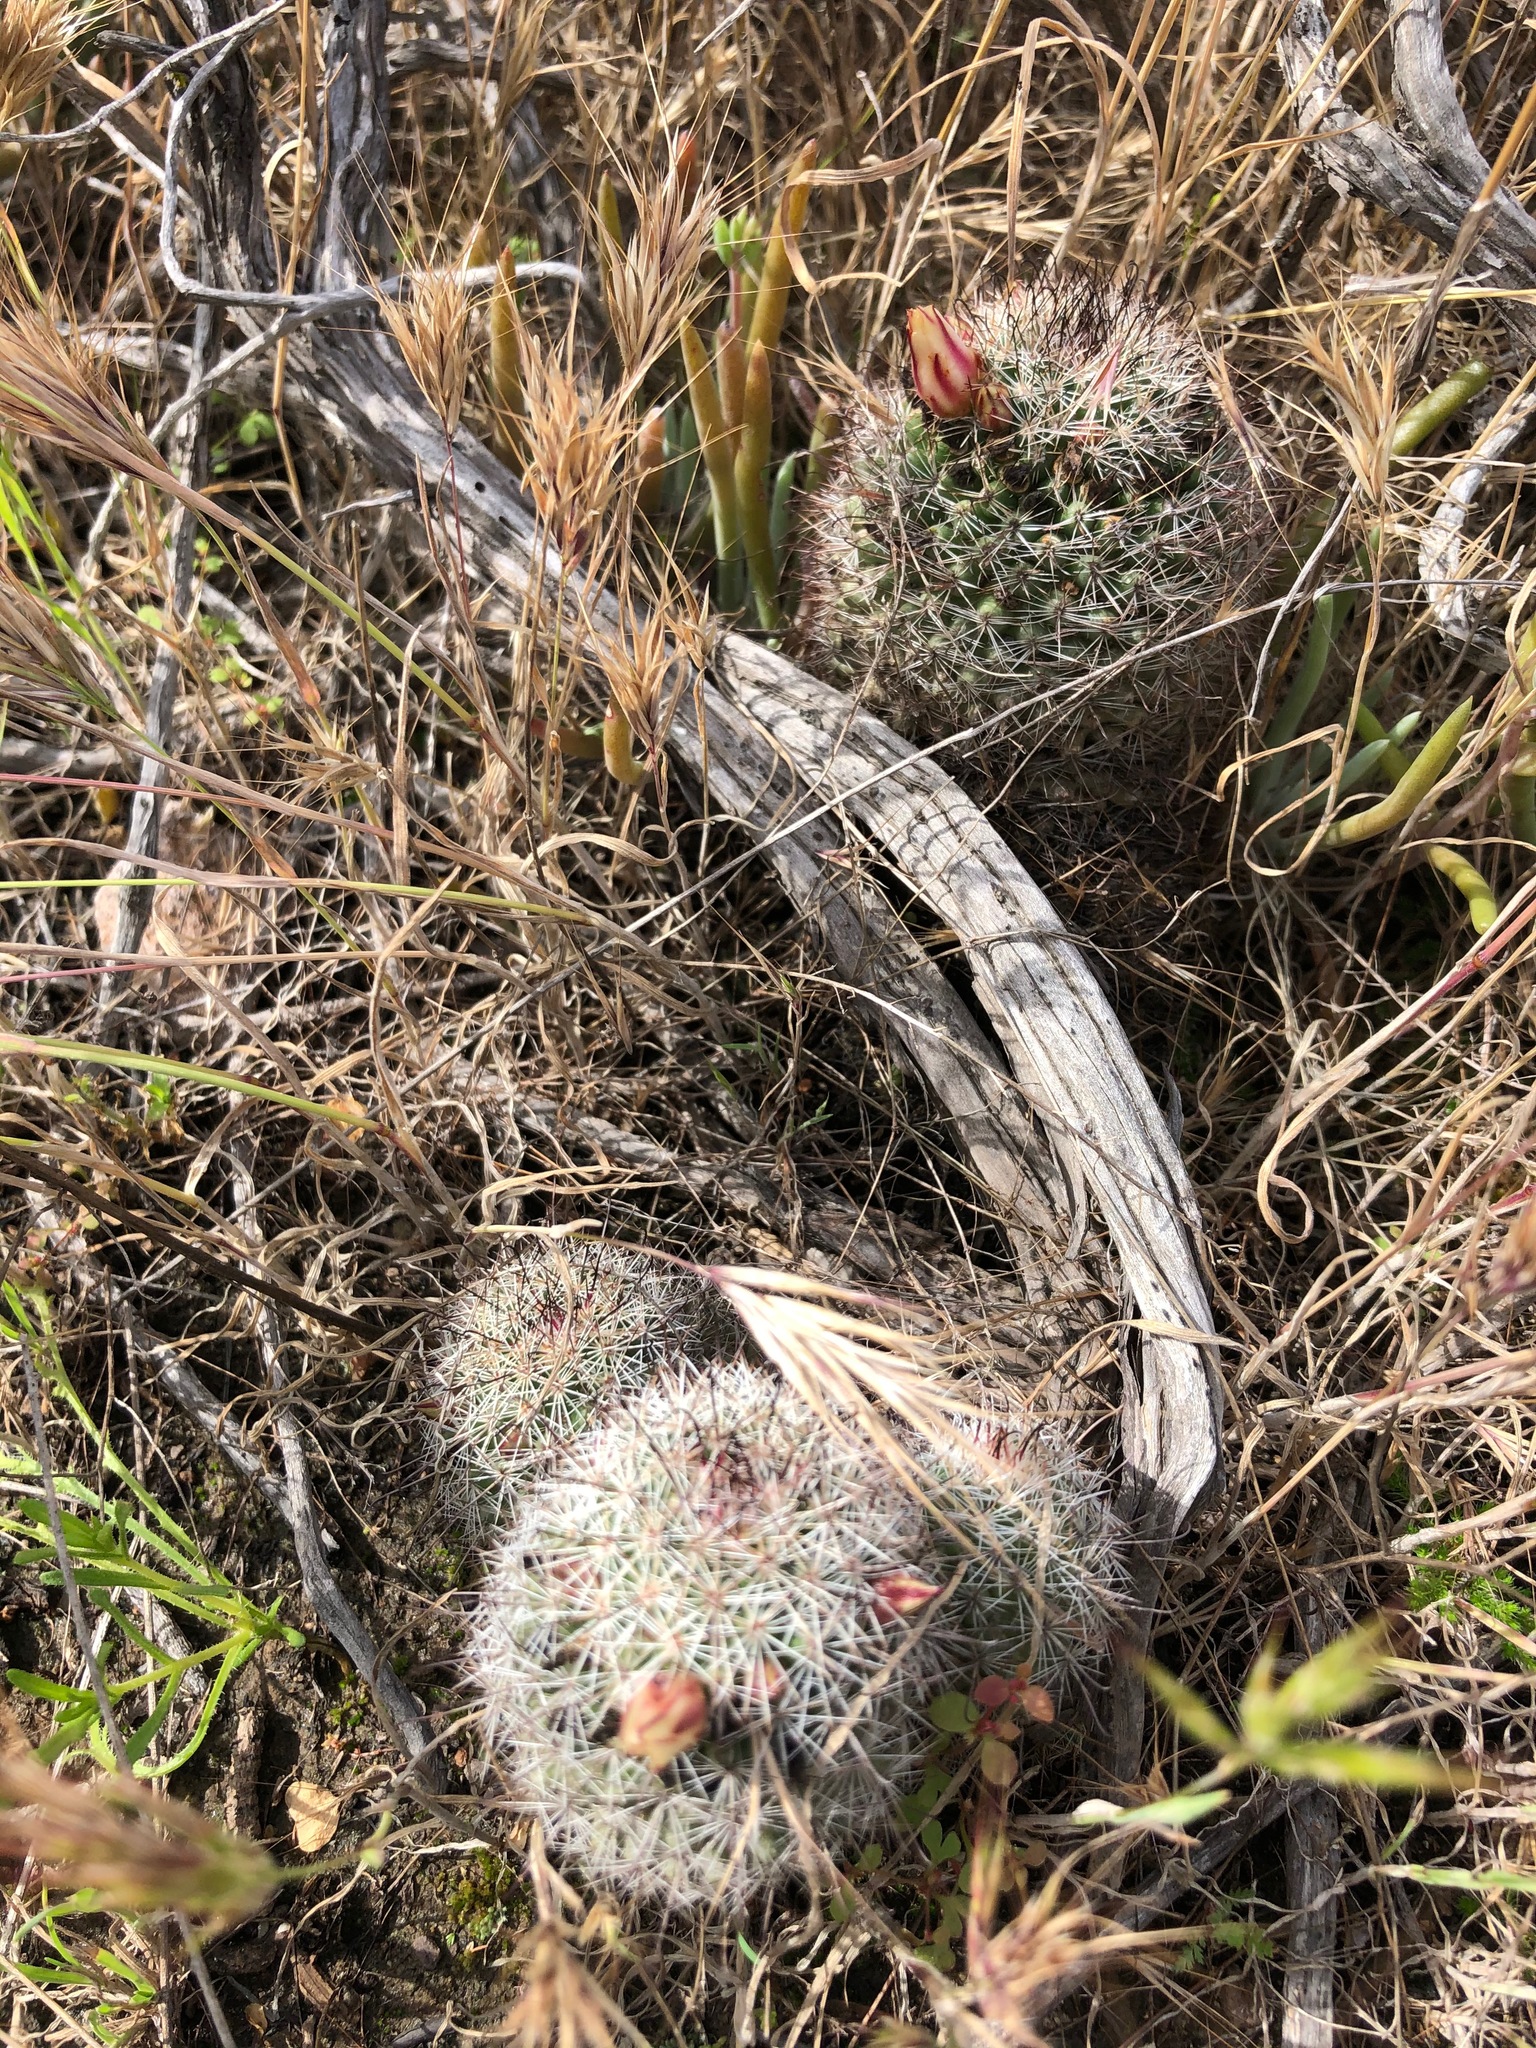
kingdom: Plantae
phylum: Tracheophyta
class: Magnoliopsida
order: Caryophyllales
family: Cactaceae
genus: Cochemiea
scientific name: Cochemiea dioica
